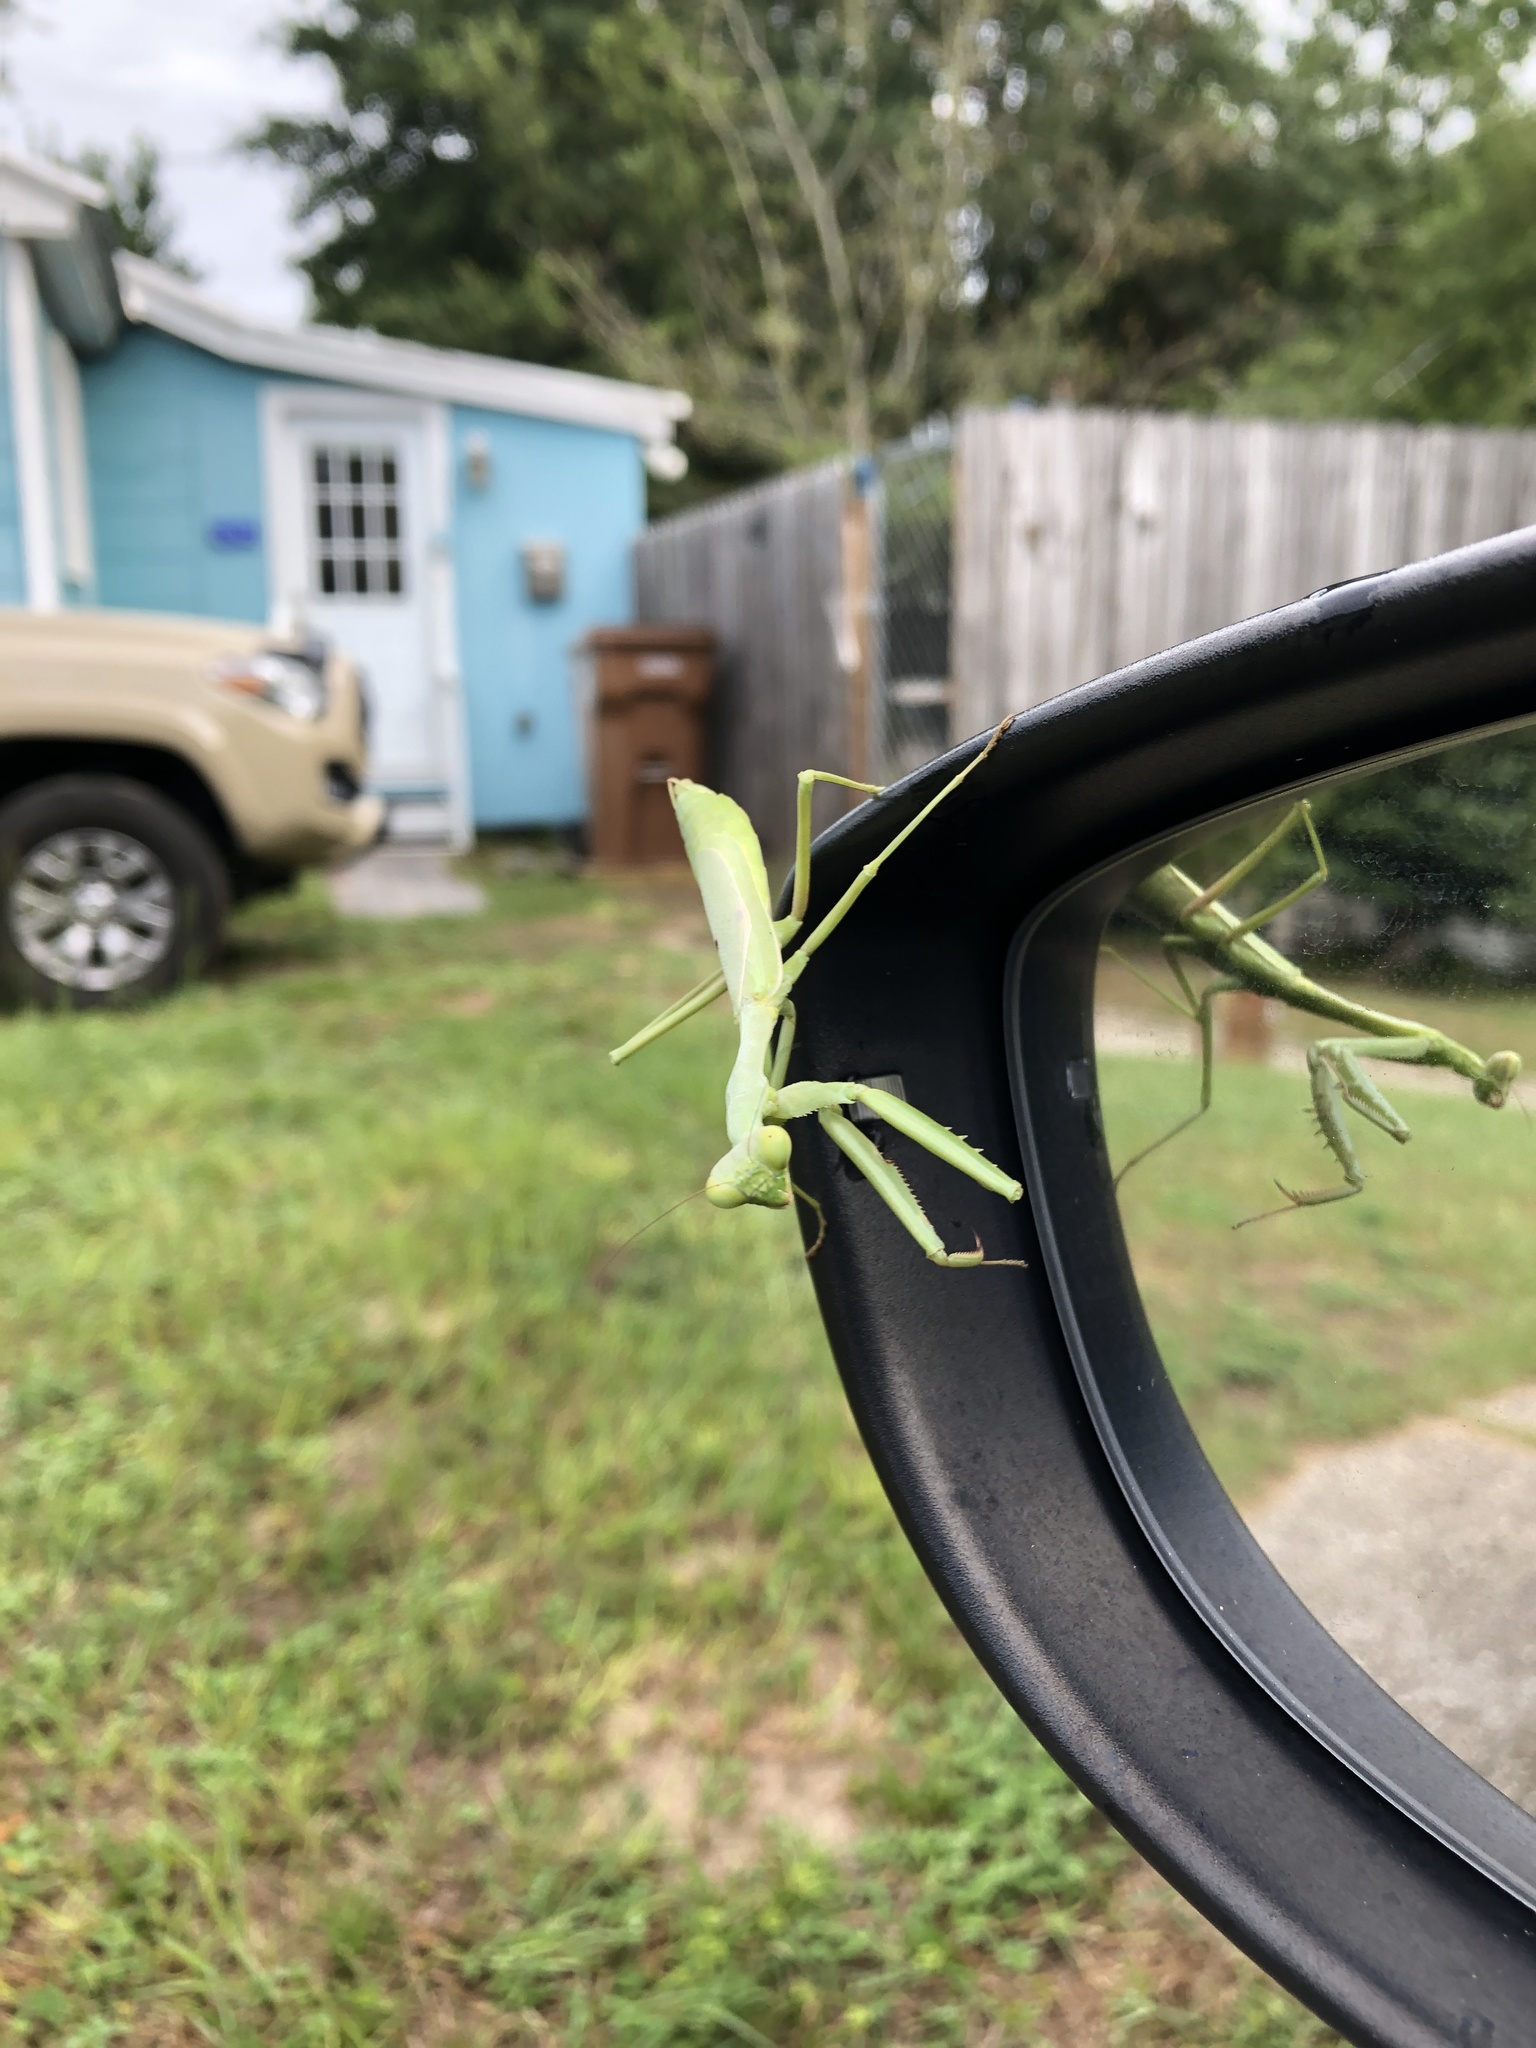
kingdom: Animalia
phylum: Arthropoda
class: Insecta
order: Mantodea
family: Mantidae
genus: Stagmomantis
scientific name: Stagmomantis carolina
